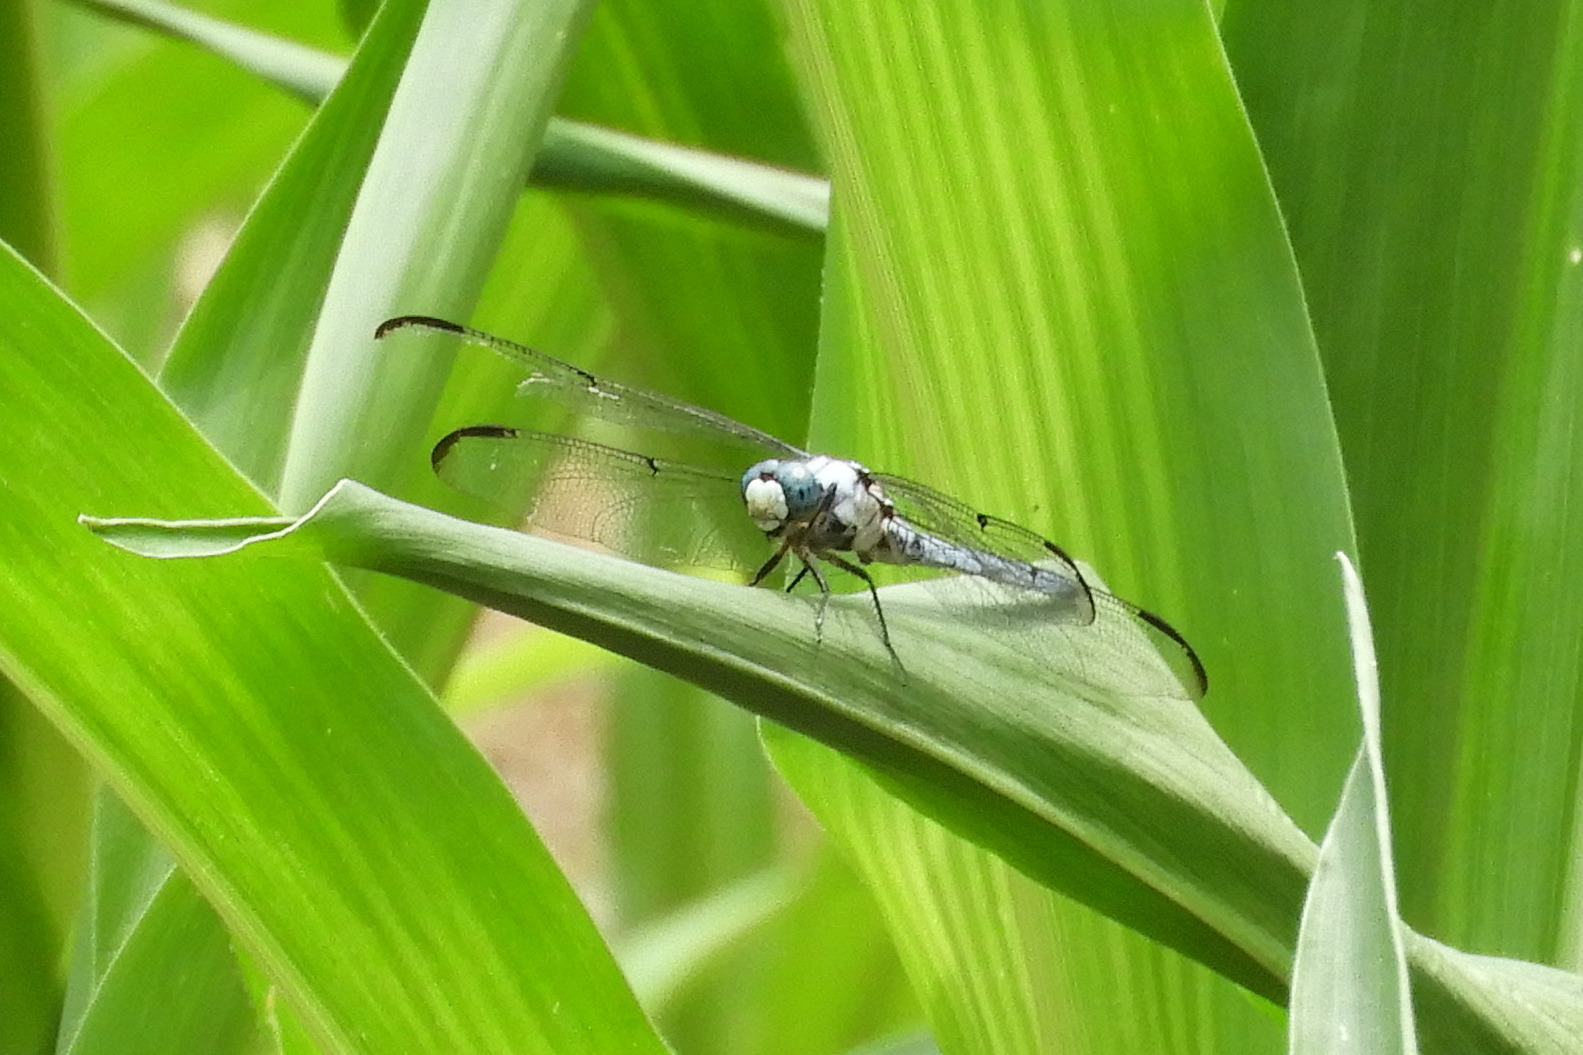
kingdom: Animalia
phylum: Arthropoda
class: Insecta
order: Odonata
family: Libellulidae
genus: Libellula
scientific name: Libellula vibrans
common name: Great blue skimmer
